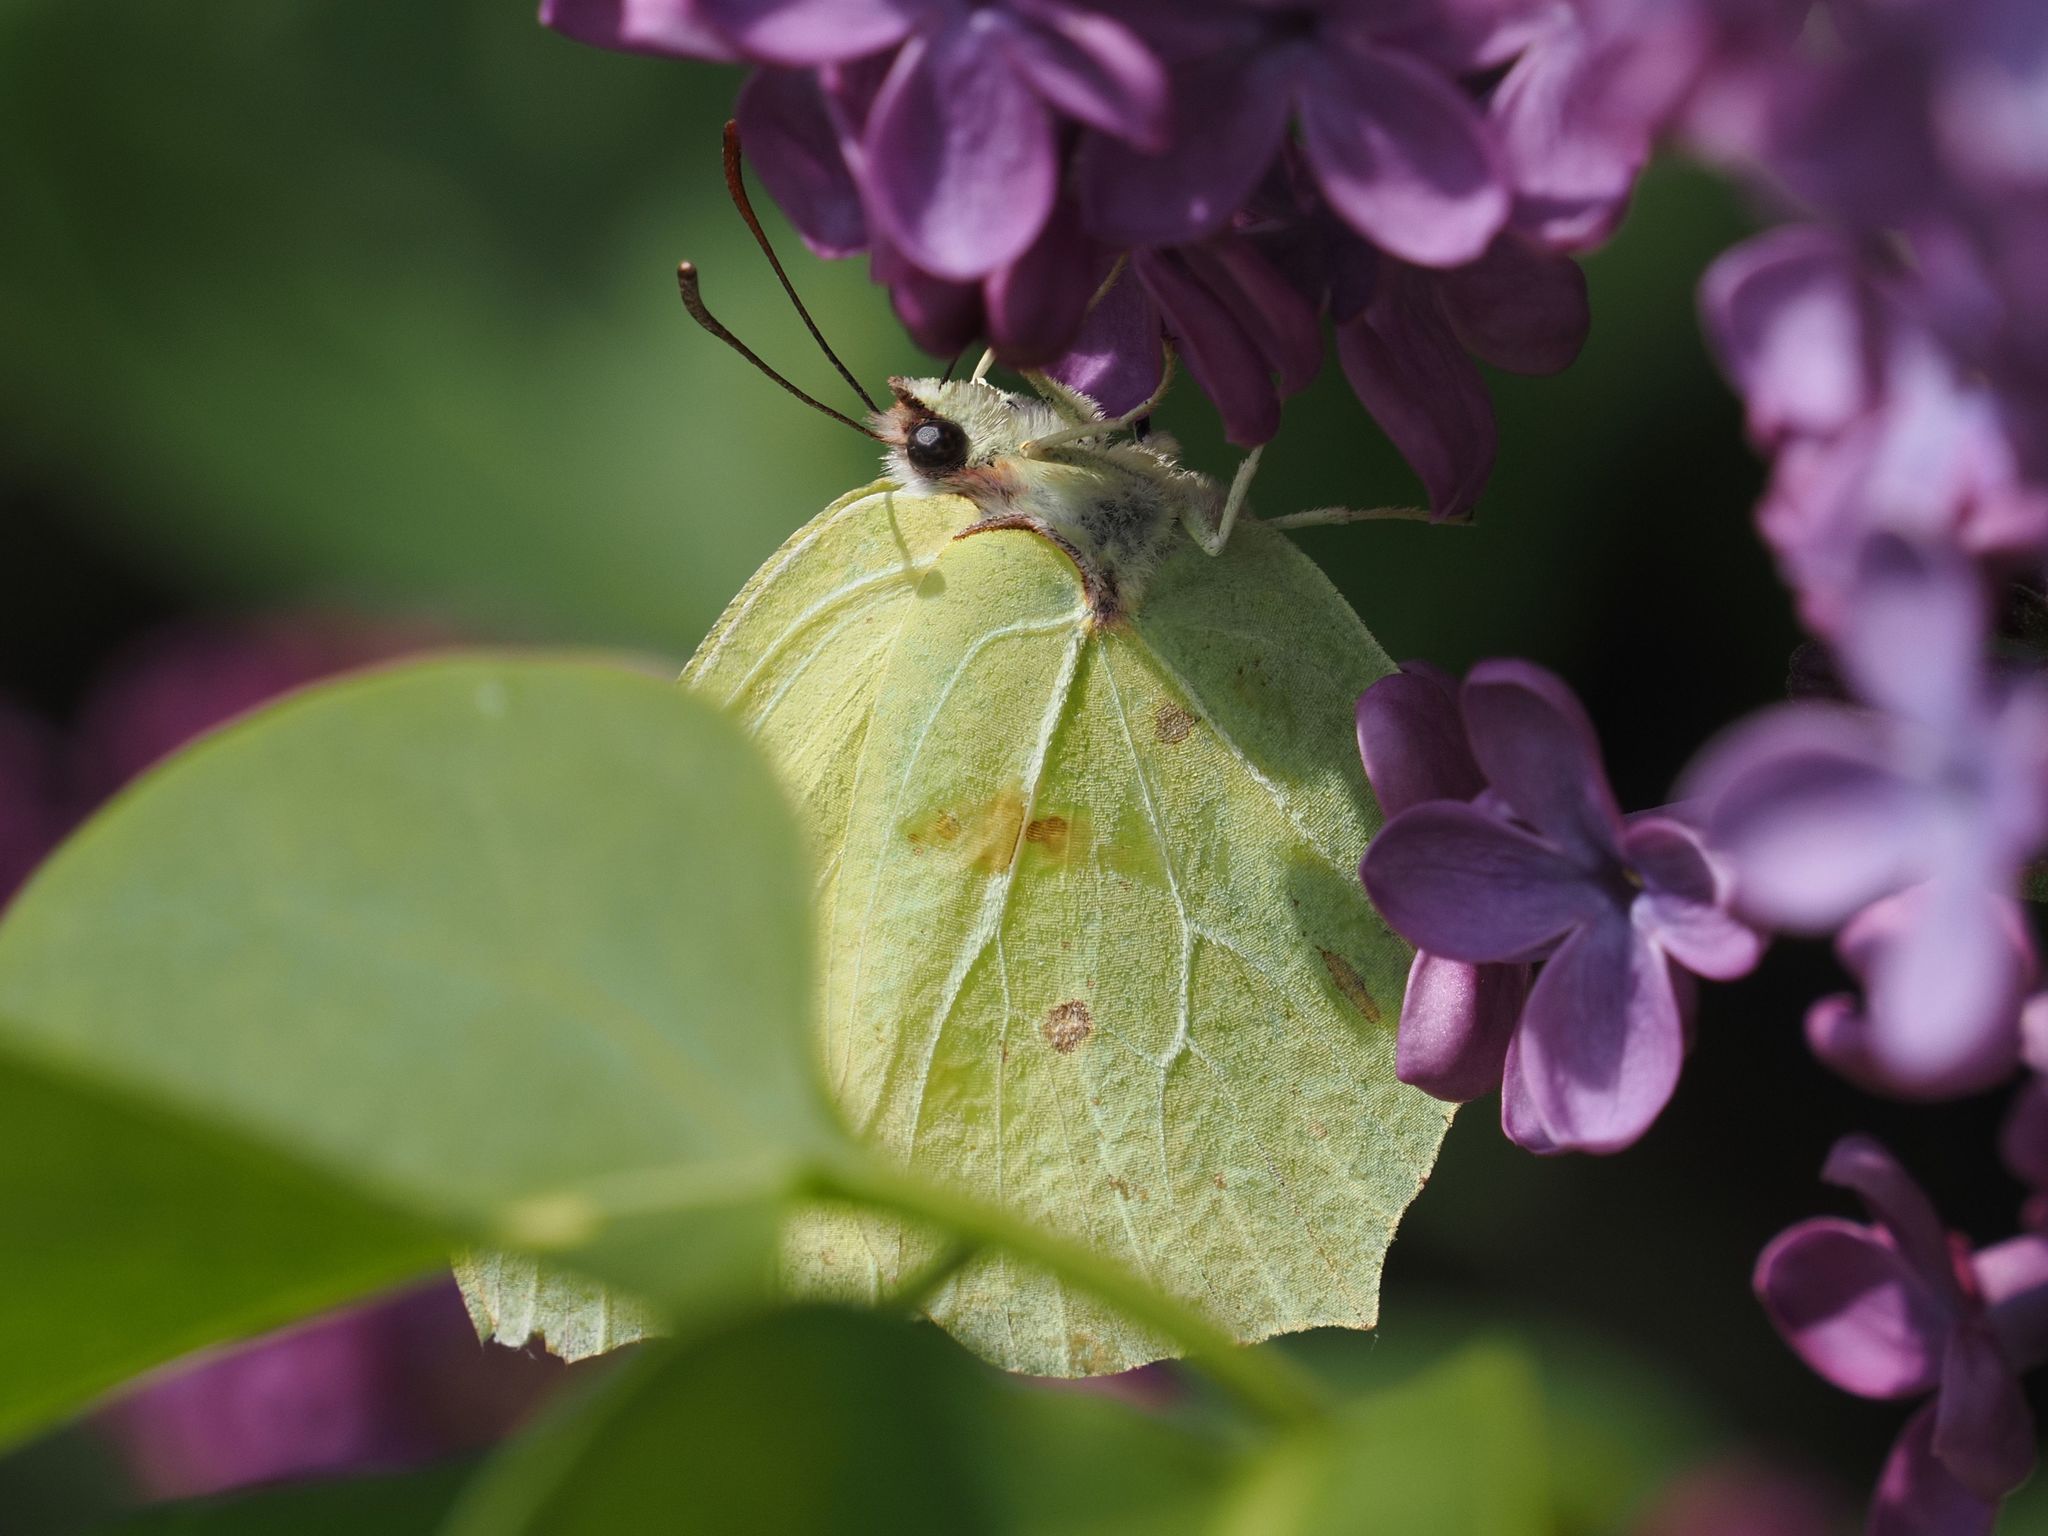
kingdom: Animalia
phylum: Arthropoda
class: Insecta
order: Lepidoptera
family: Pieridae
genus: Gonepteryx
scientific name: Gonepteryx rhamni
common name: Brimstone
